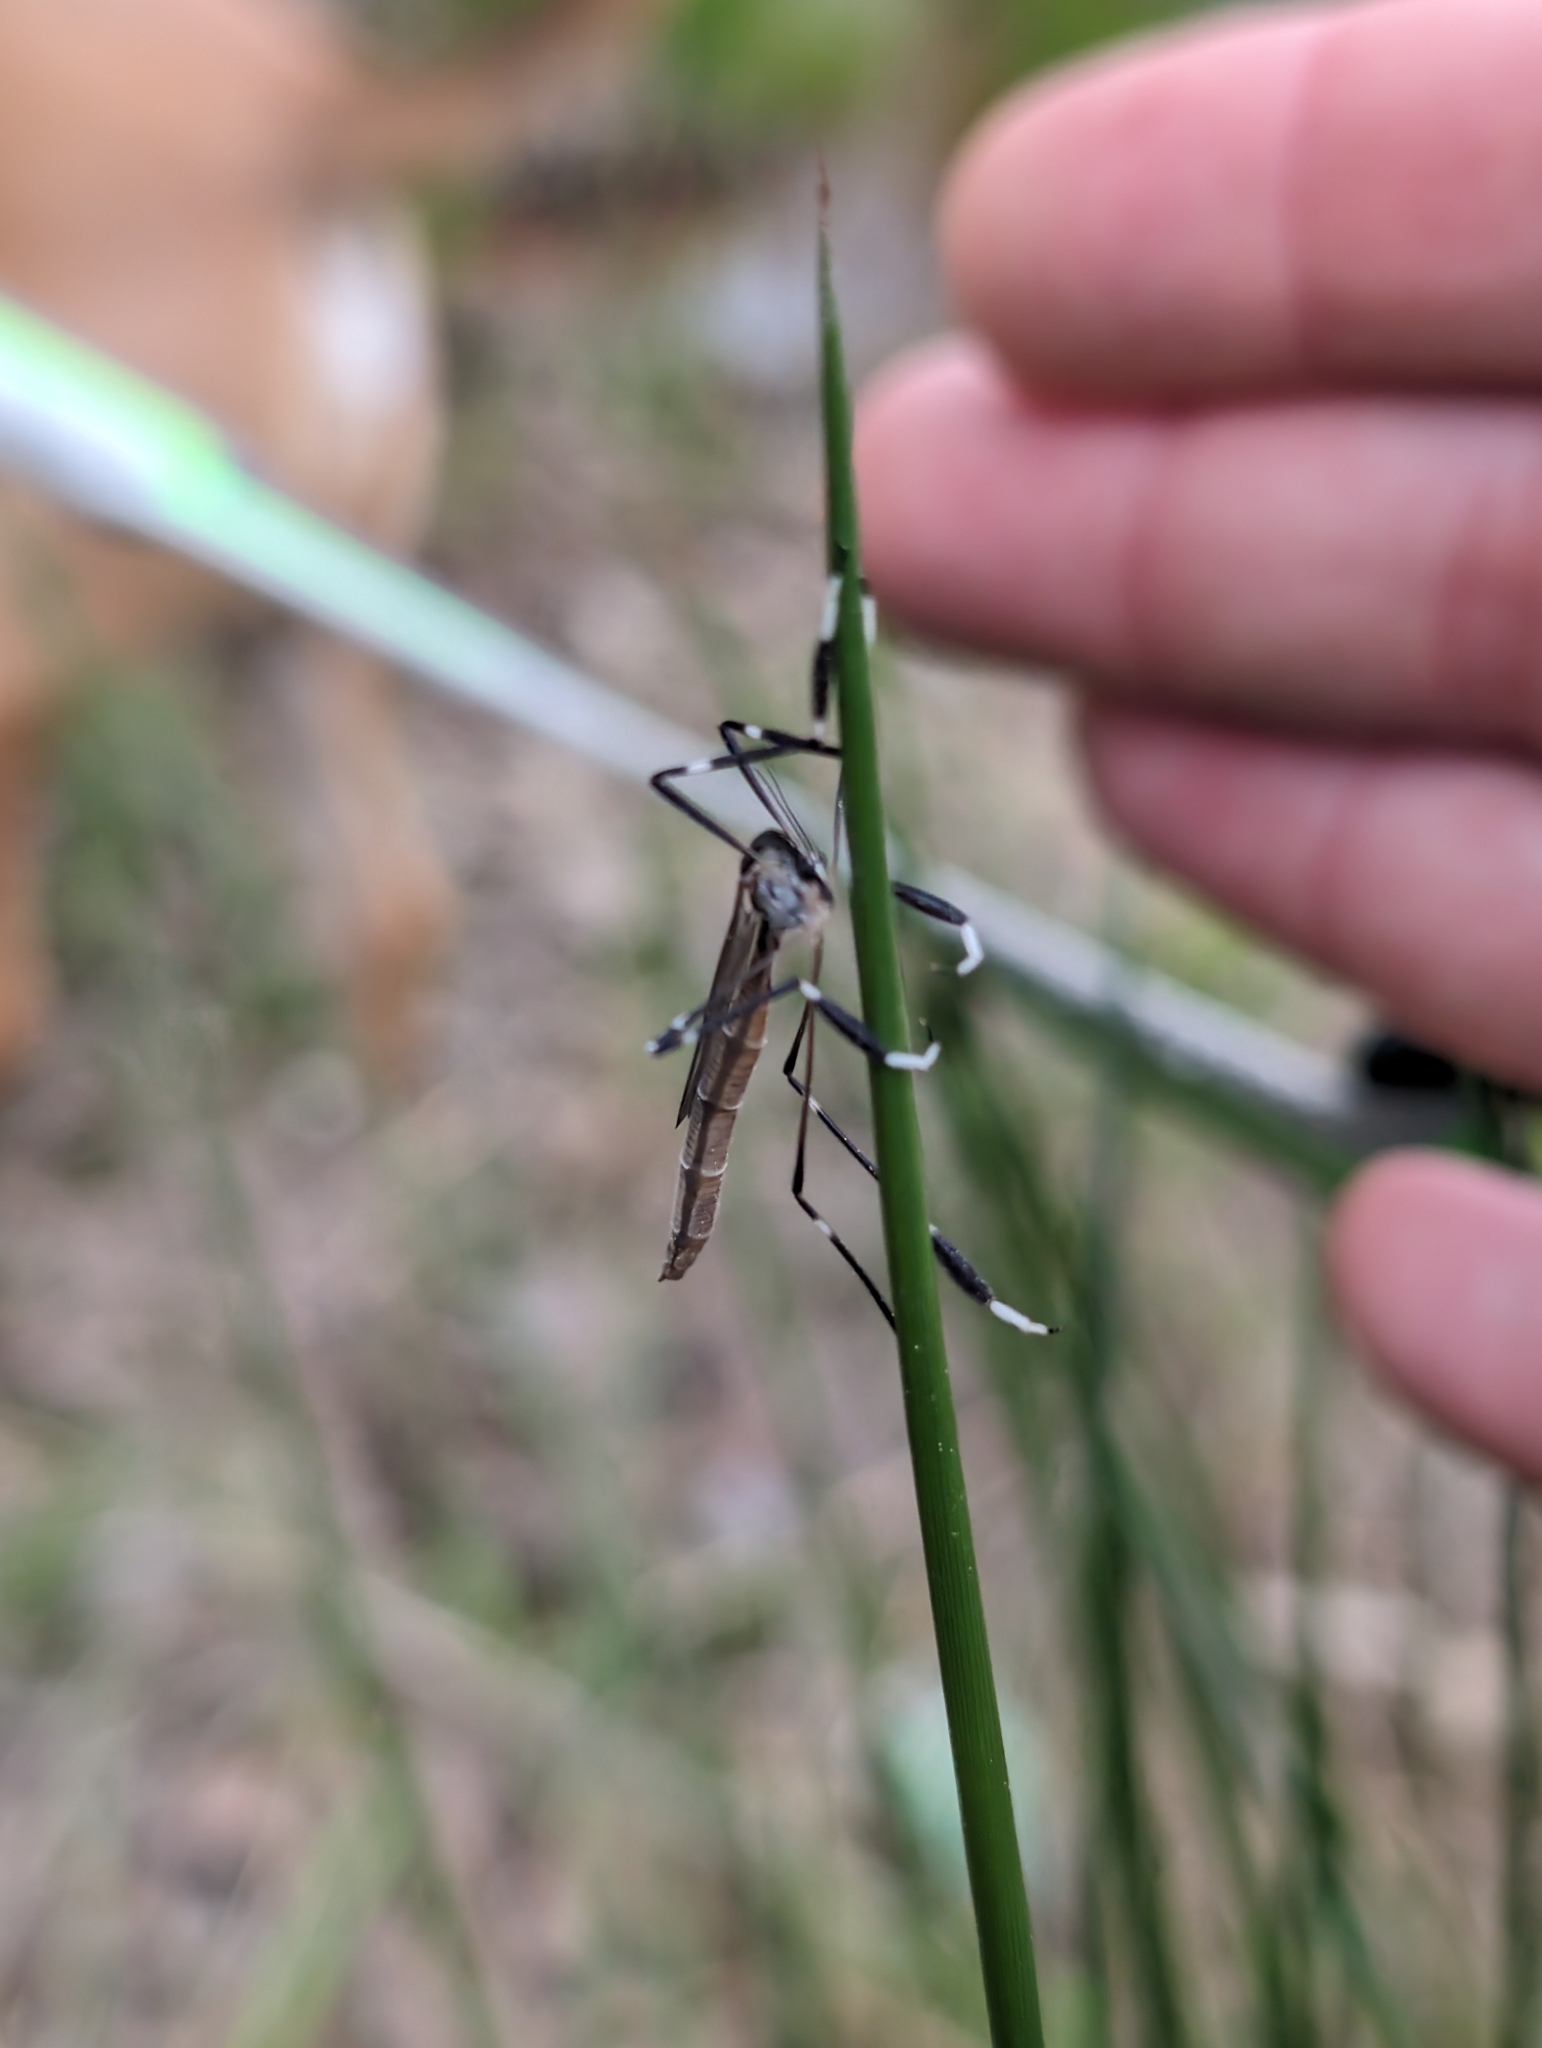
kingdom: Animalia
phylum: Arthropoda
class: Insecta
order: Diptera
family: Ptychopteridae
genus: Bittacomorpha
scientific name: Bittacomorpha clavipes
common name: Eastern phantom crane fly
